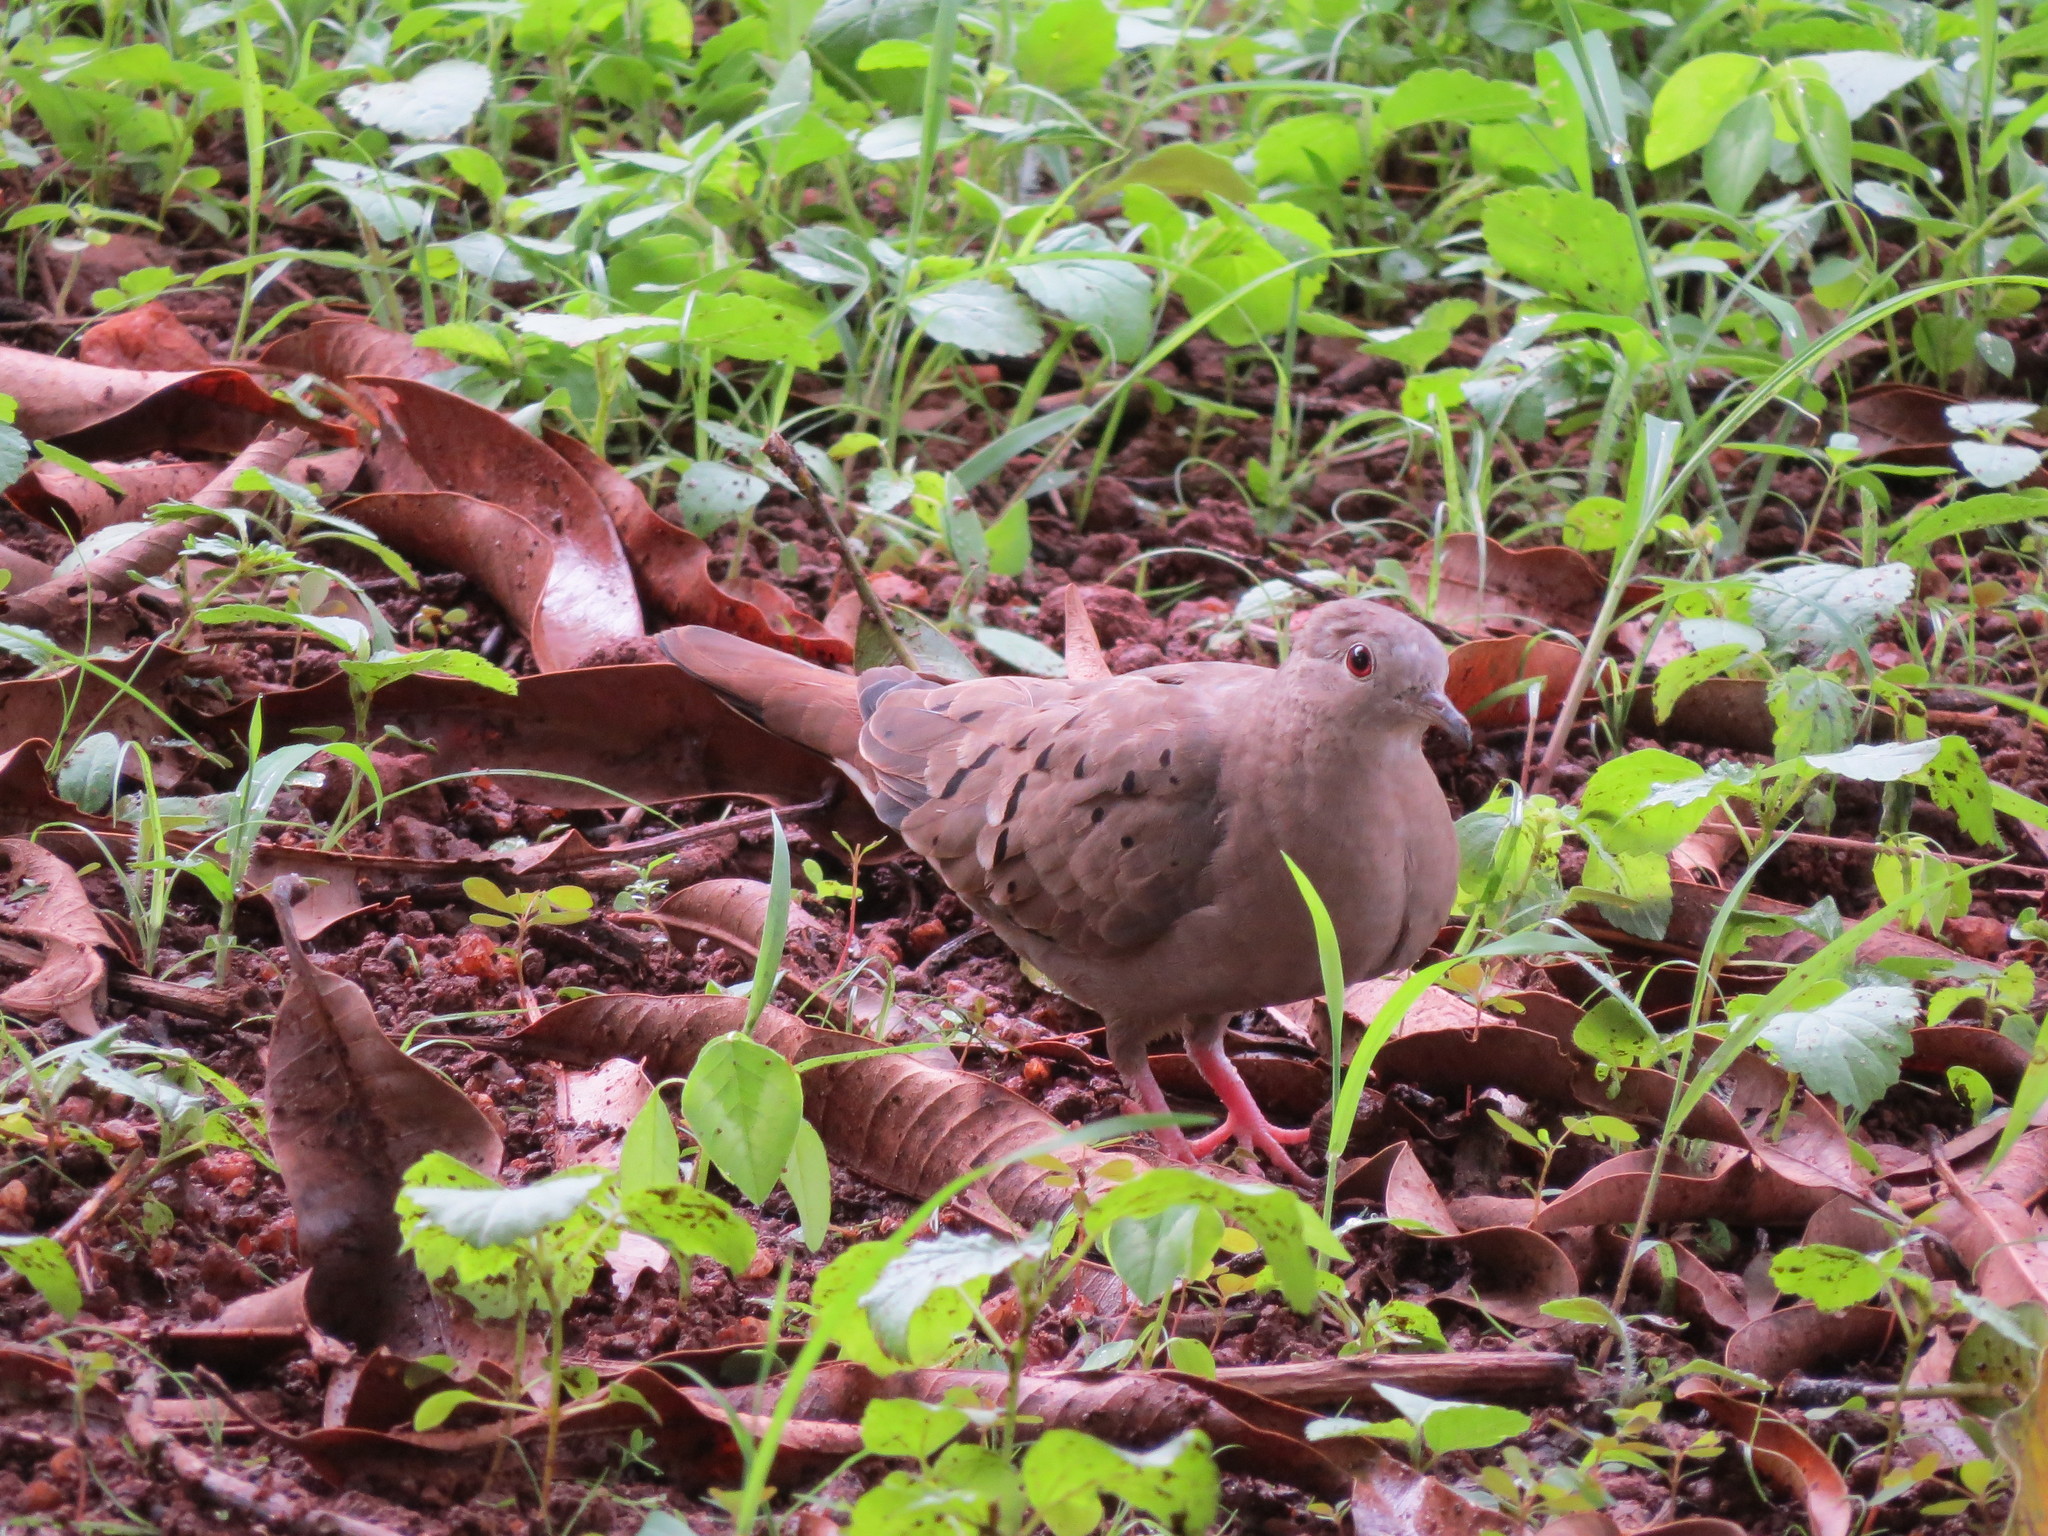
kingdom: Animalia
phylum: Chordata
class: Aves
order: Columbiformes
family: Columbidae
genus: Columbina
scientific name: Columbina talpacoti
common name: Ruddy ground dove
